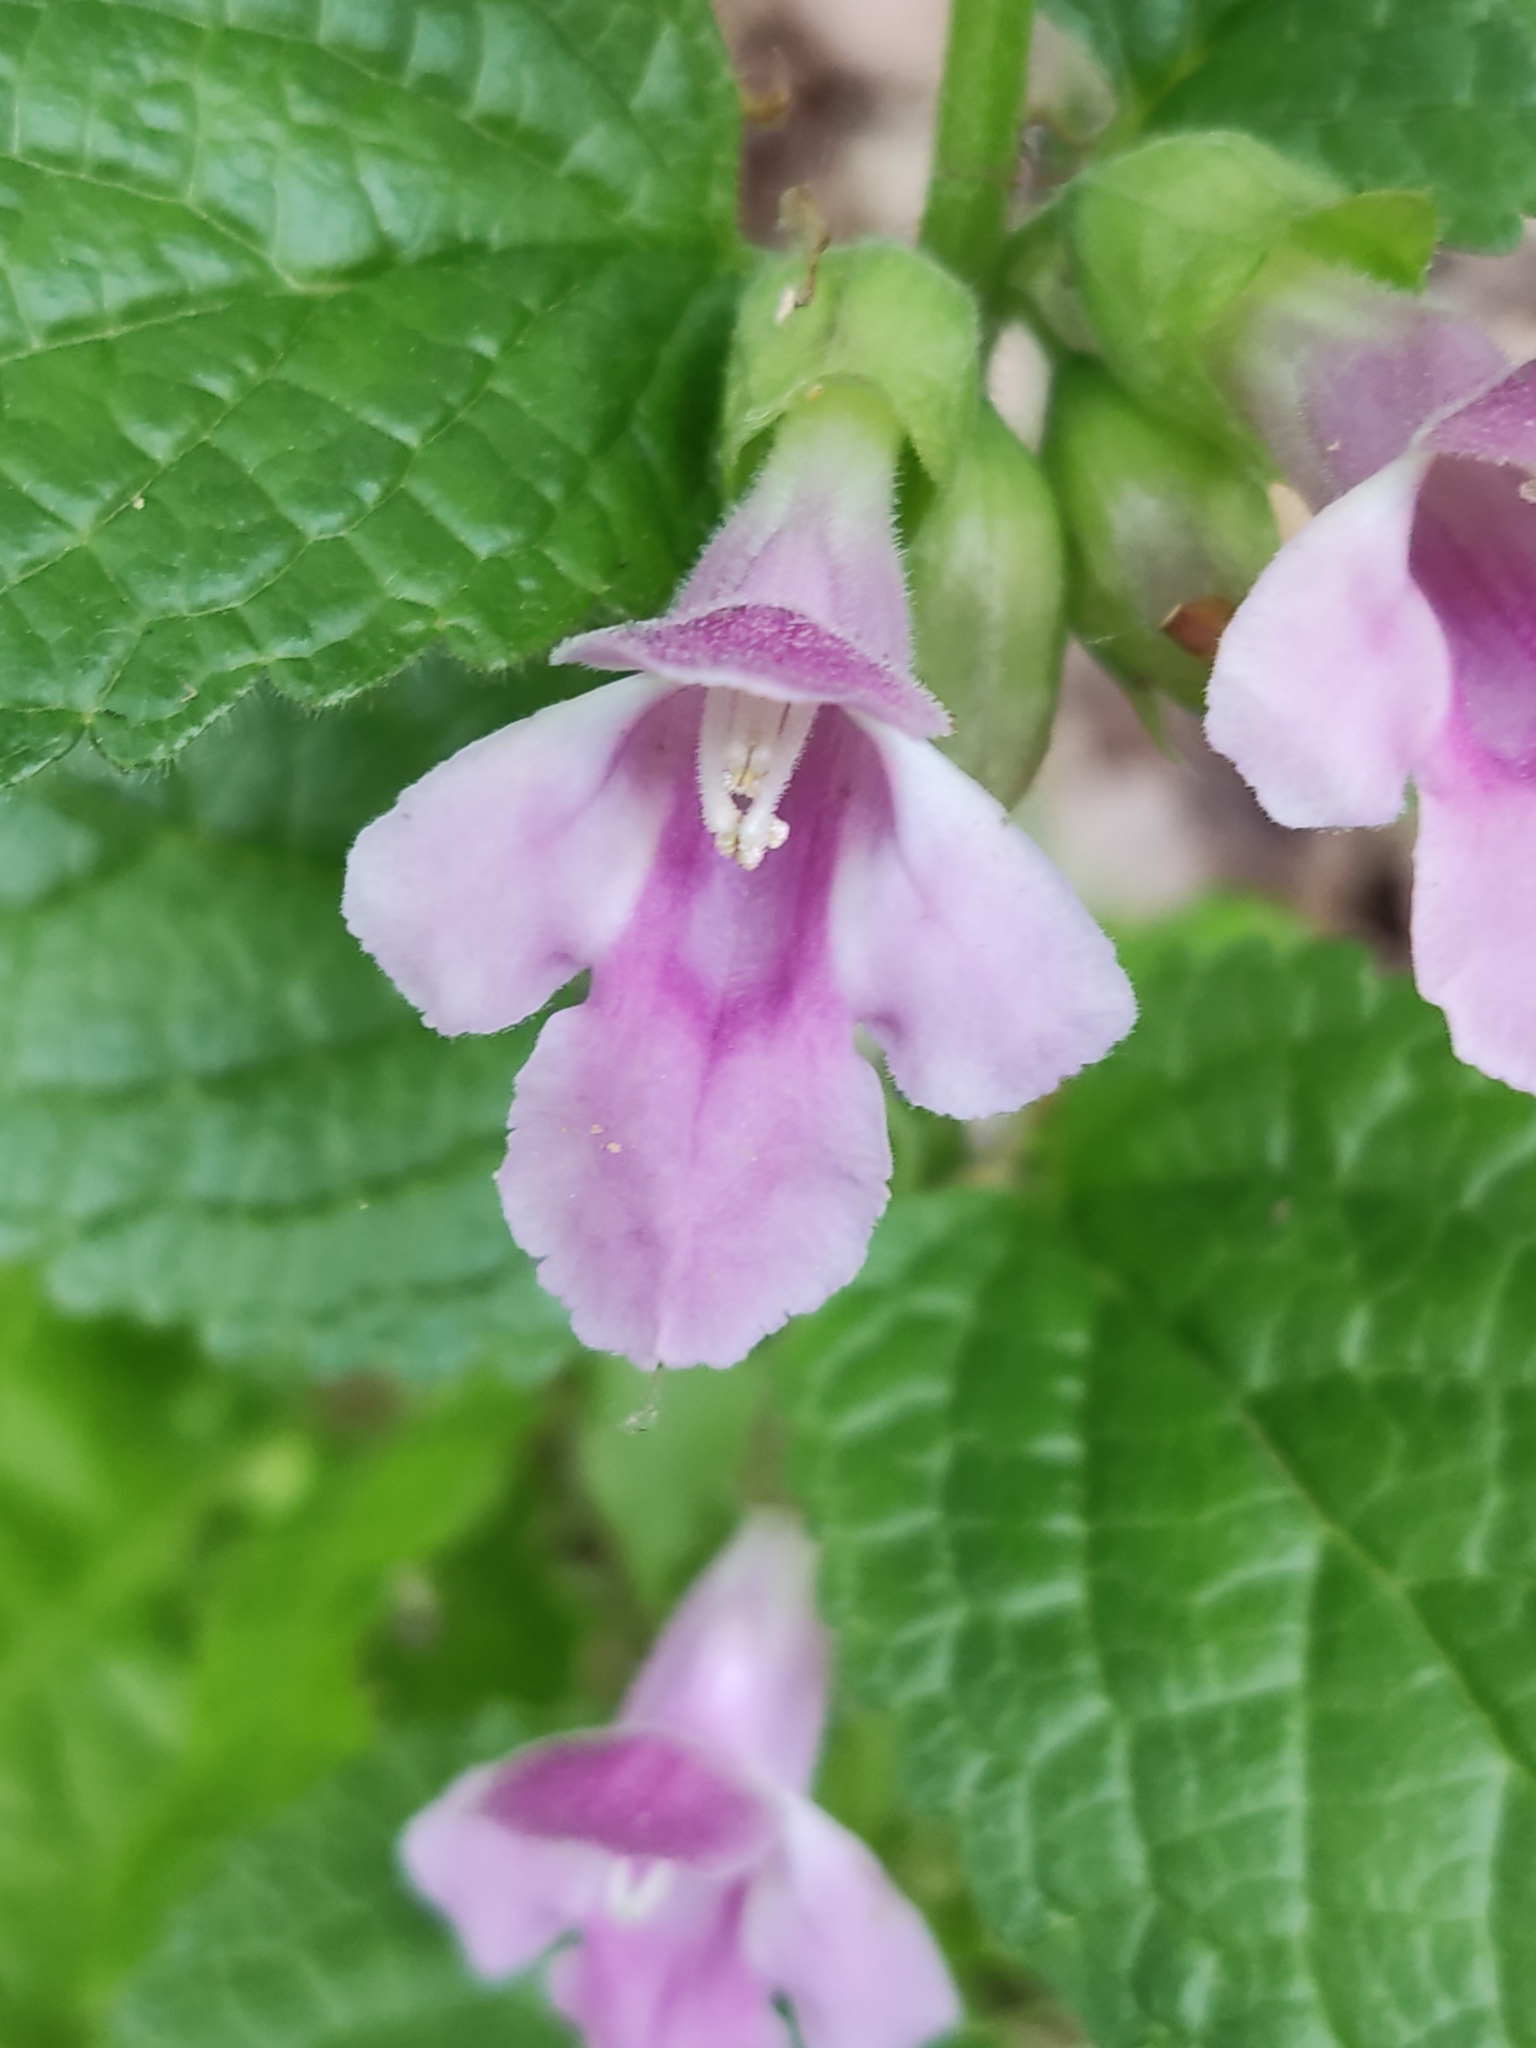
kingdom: Plantae
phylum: Tracheophyta
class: Magnoliopsida
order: Lamiales
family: Lamiaceae
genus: Melittis
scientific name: Melittis melissophyllum
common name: Bastard balm
